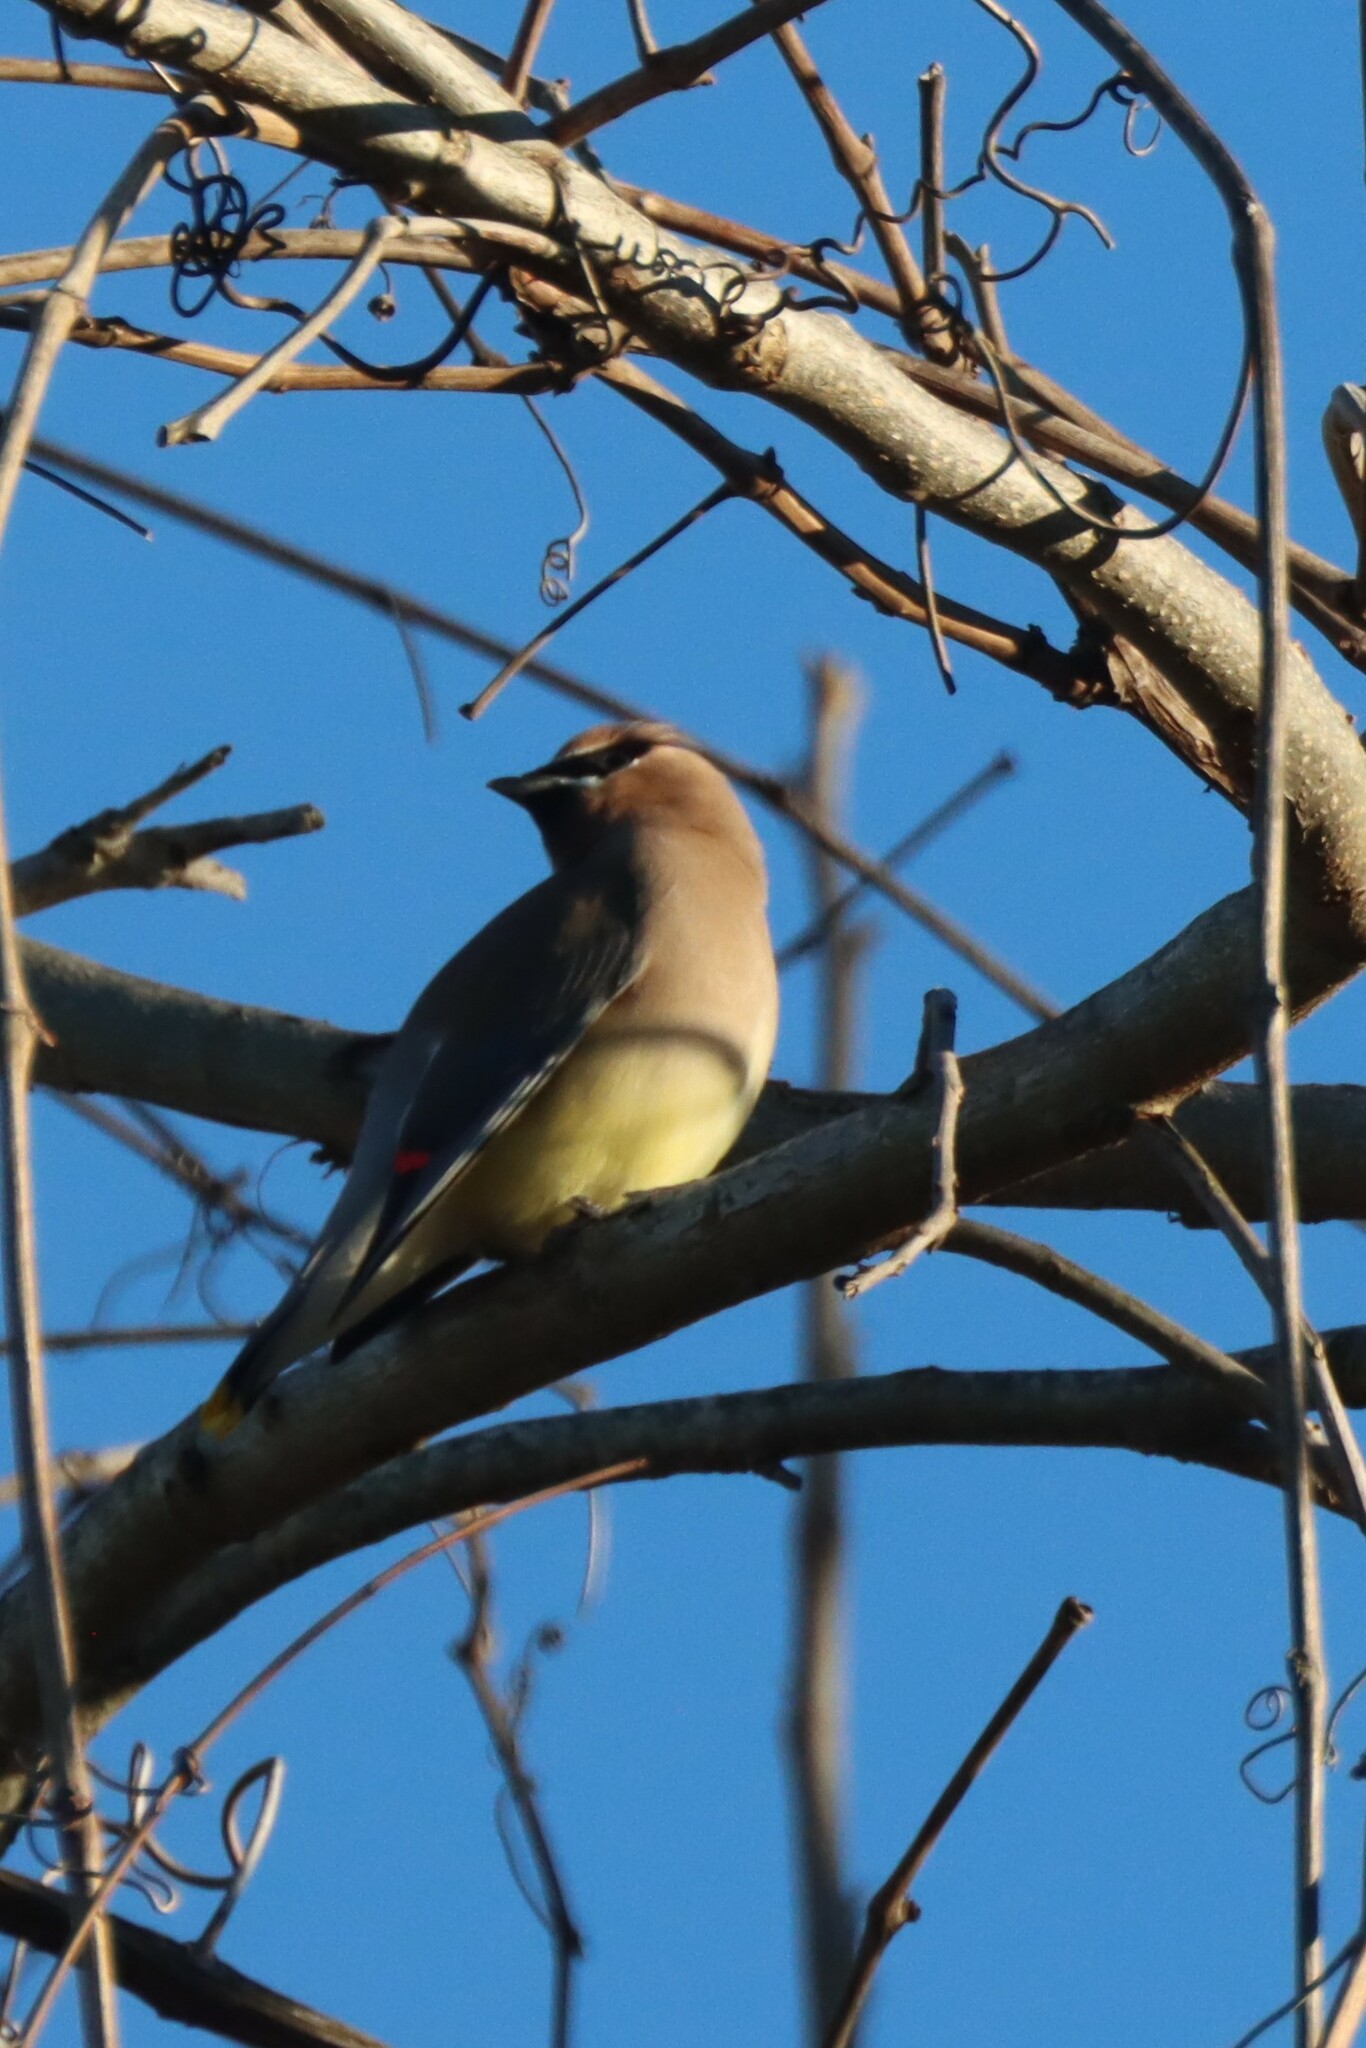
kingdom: Animalia
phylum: Chordata
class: Aves
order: Passeriformes
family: Bombycillidae
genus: Bombycilla
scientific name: Bombycilla cedrorum
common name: Cedar waxwing
